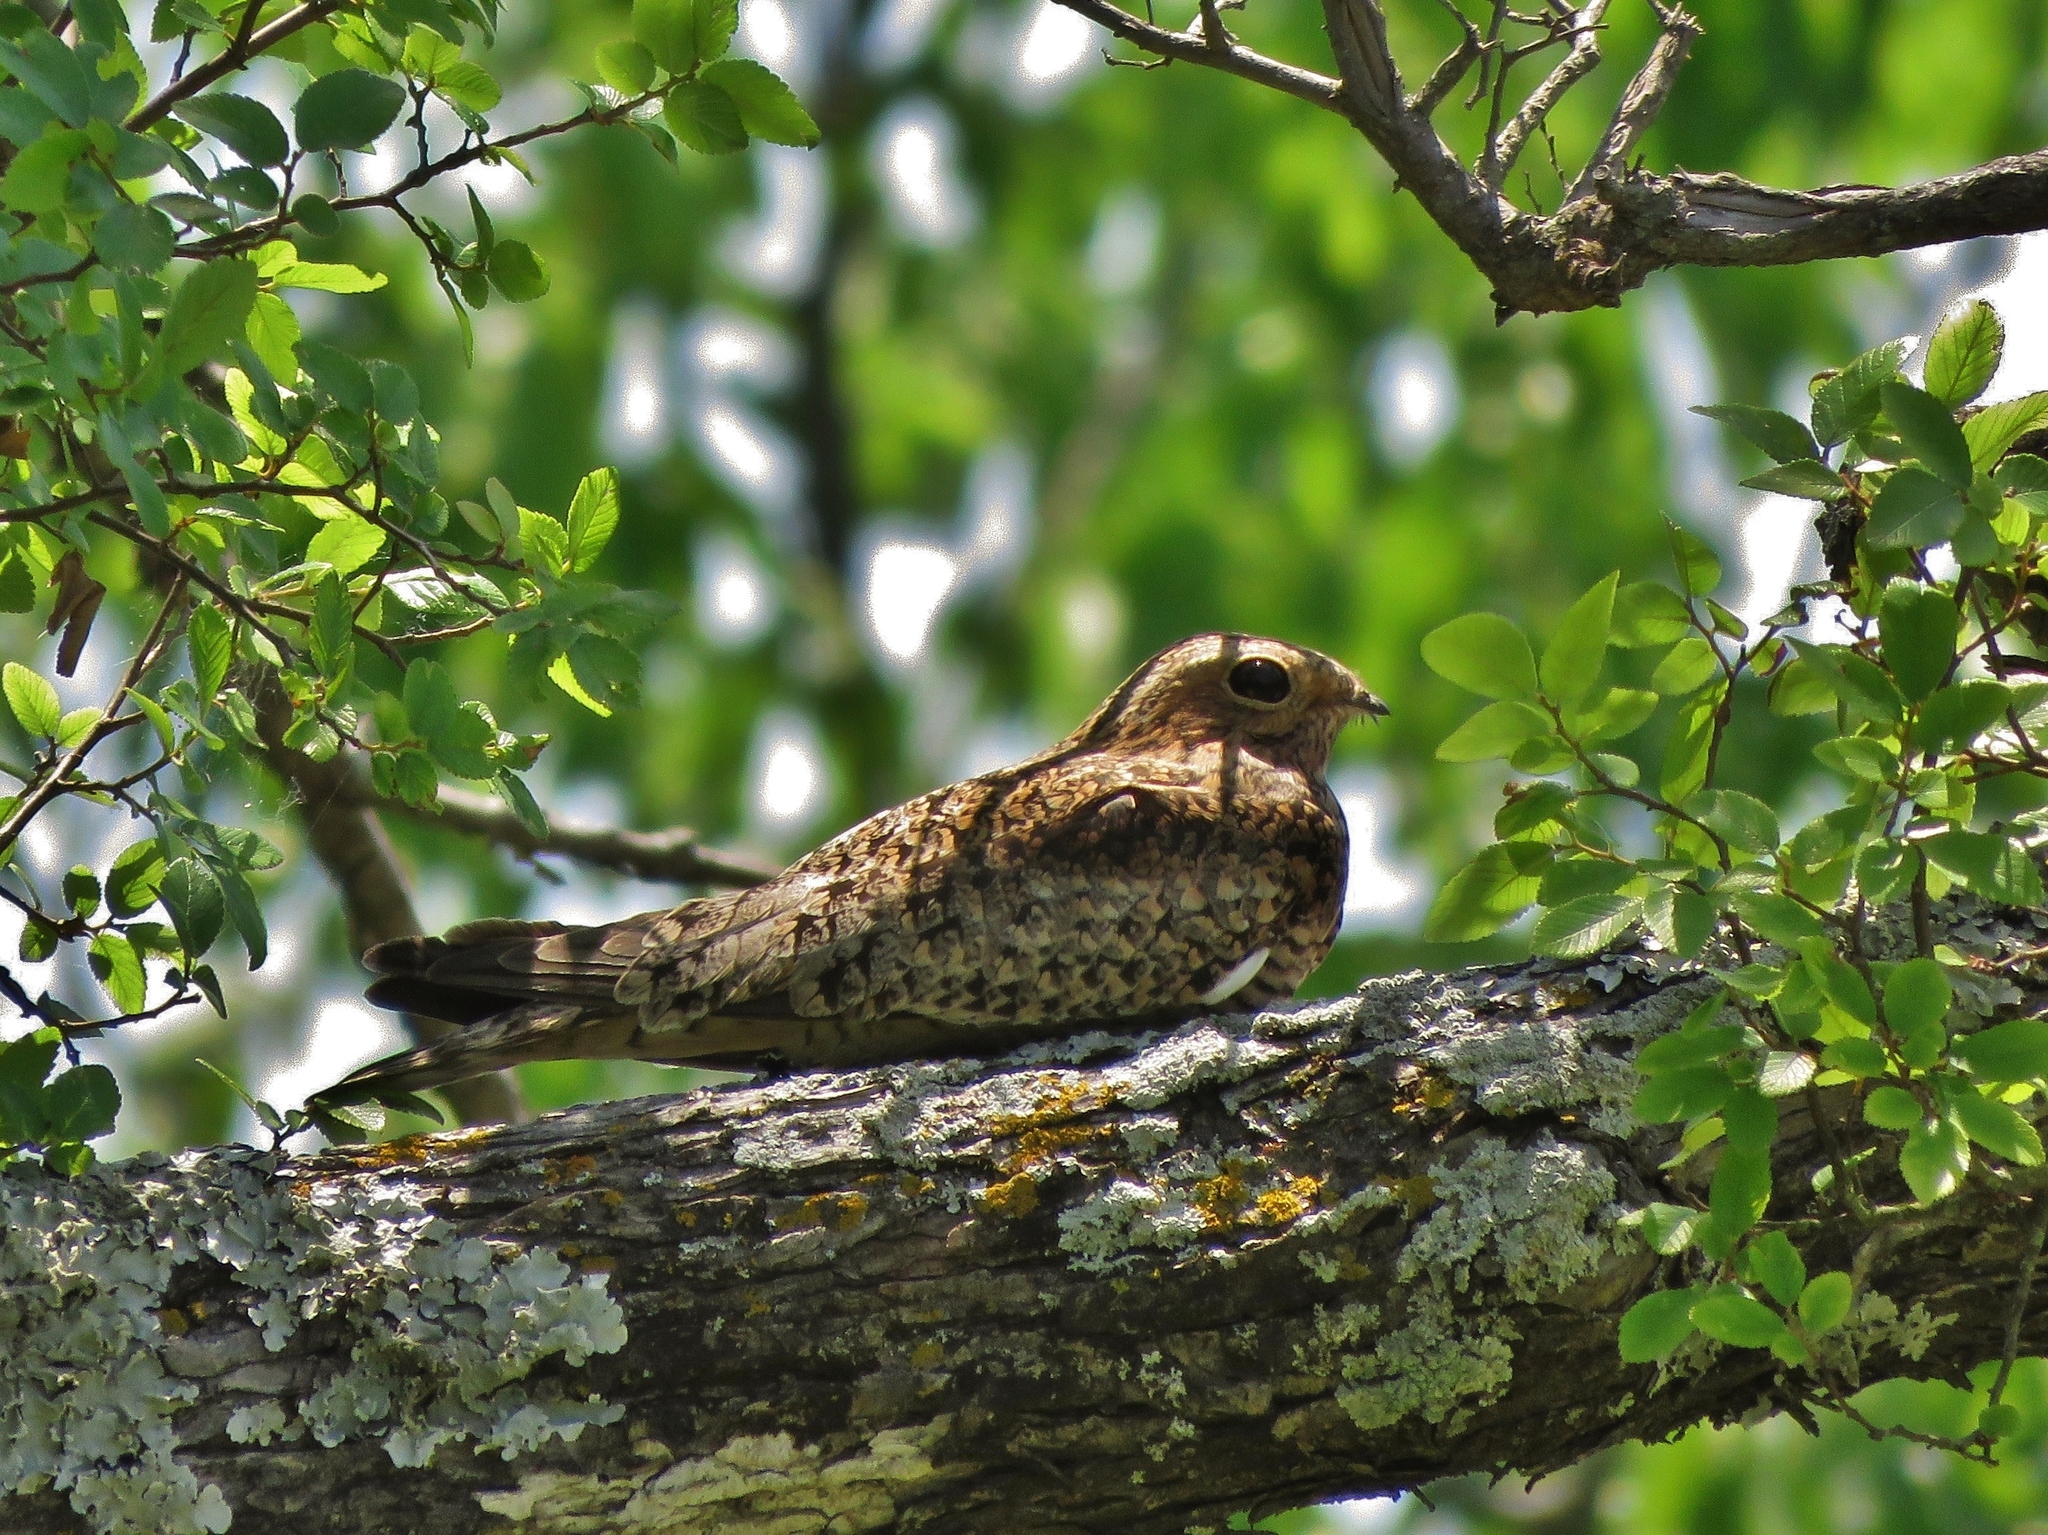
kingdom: Animalia
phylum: Chordata
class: Aves
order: Caprimulgiformes
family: Caprimulgidae
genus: Chordeiles
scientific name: Chordeiles minor
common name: Common nighthawk
